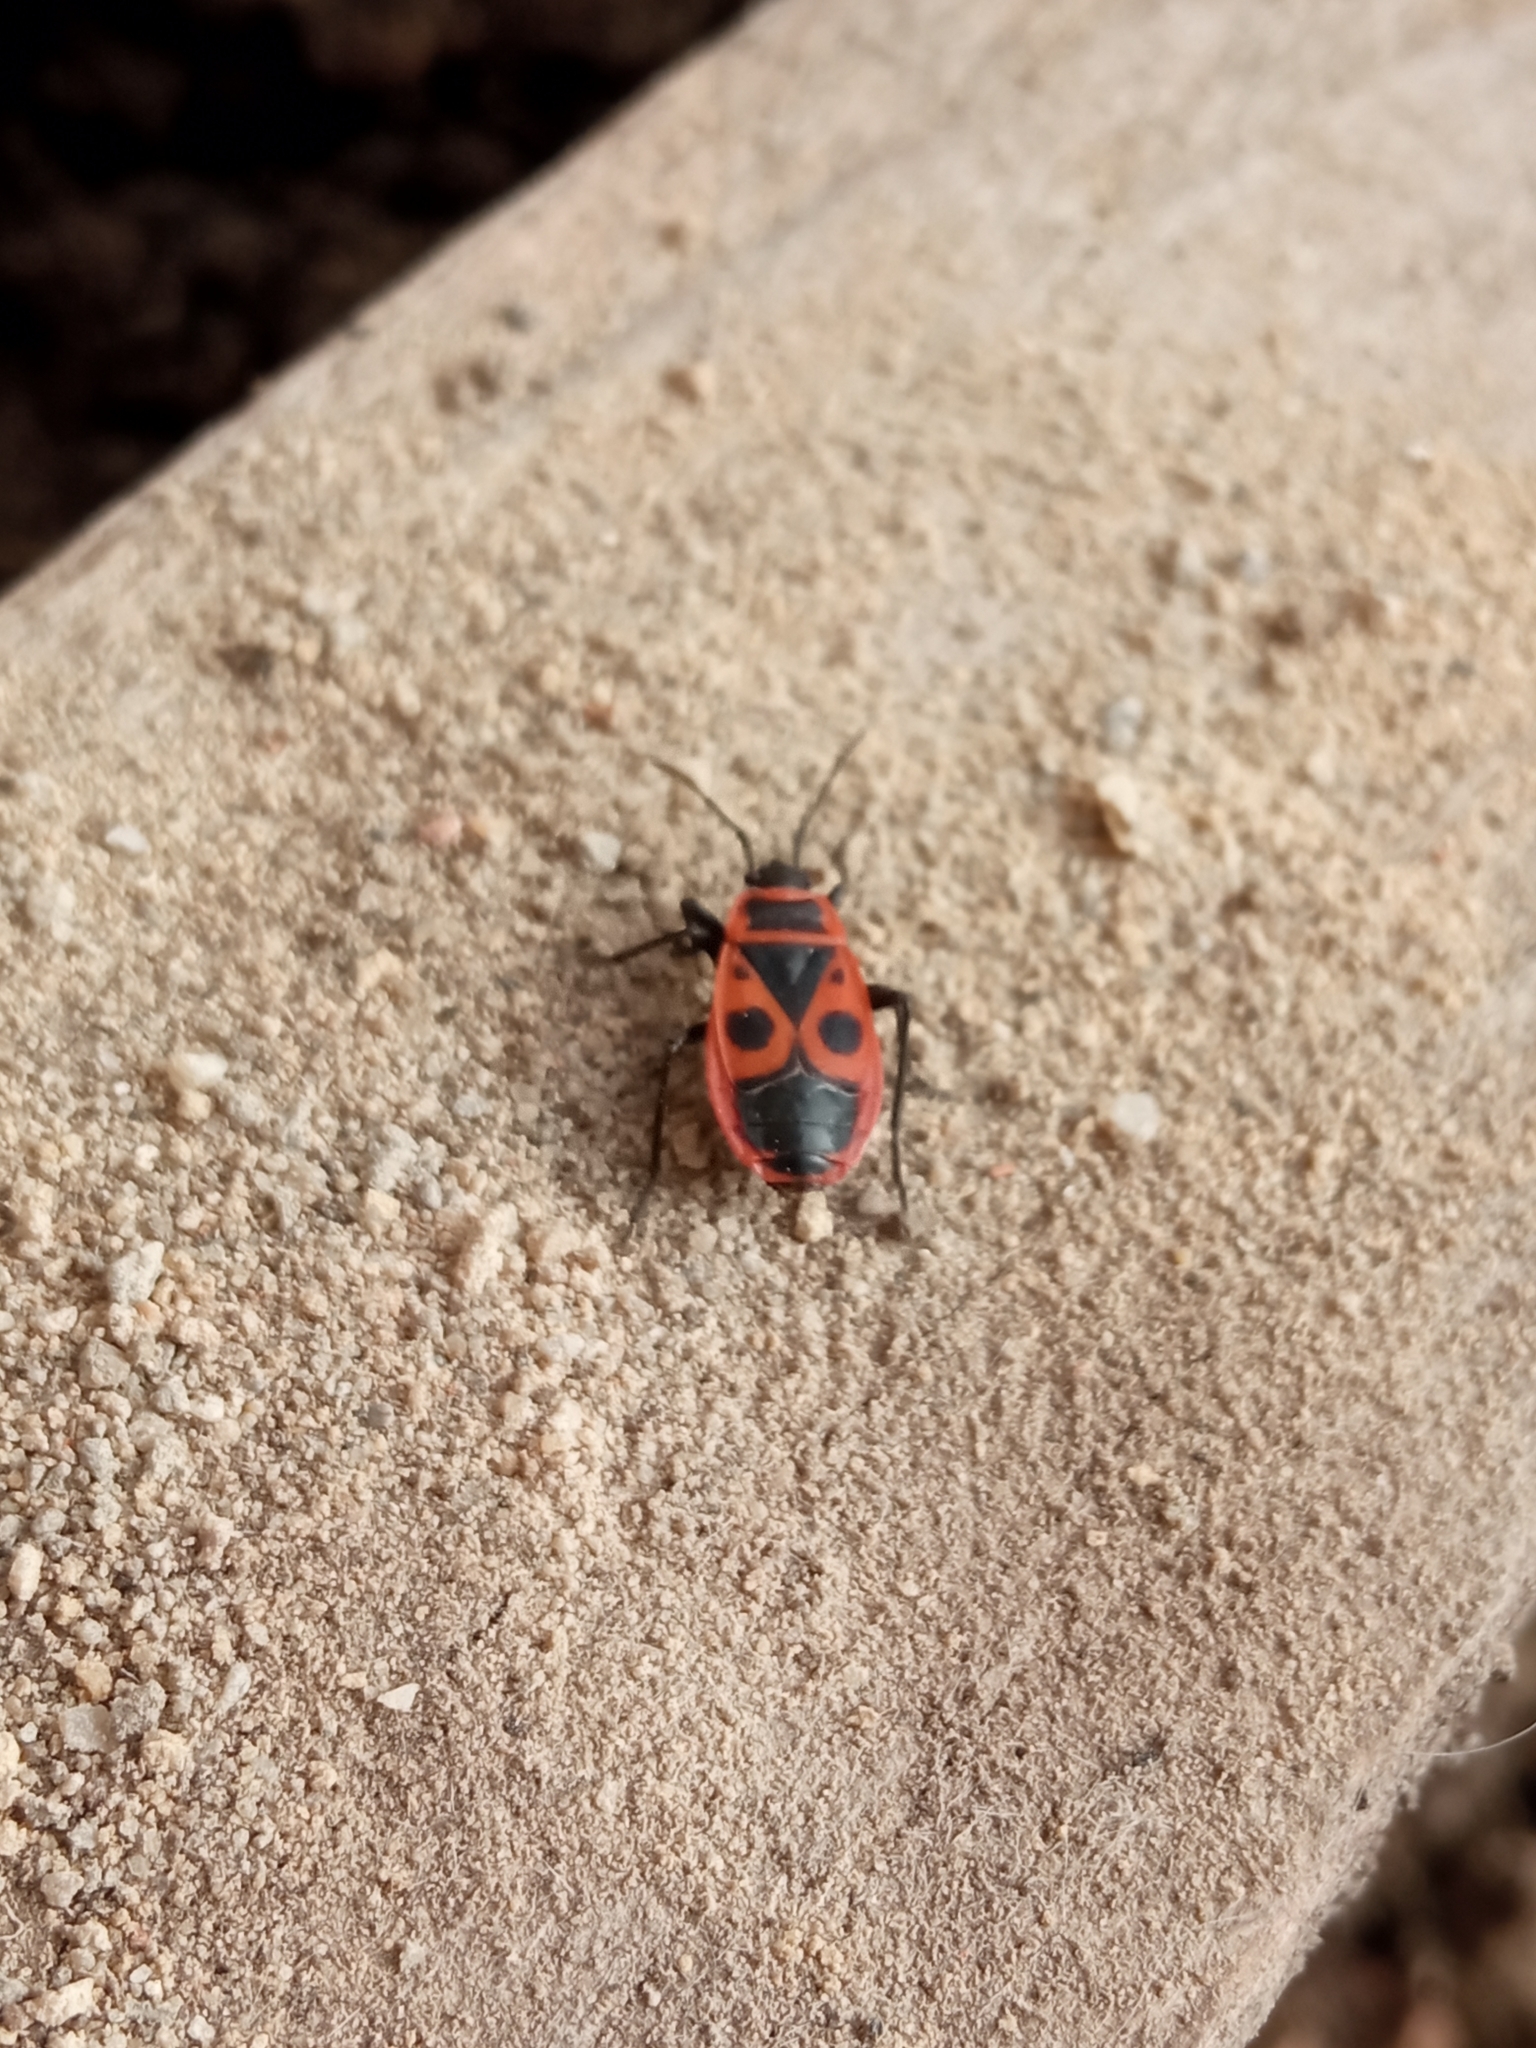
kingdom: Animalia
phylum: Arthropoda
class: Insecta
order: Hemiptera
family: Pyrrhocoridae
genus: Pyrrhocoris
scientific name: Pyrrhocoris apterus
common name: Firebug
